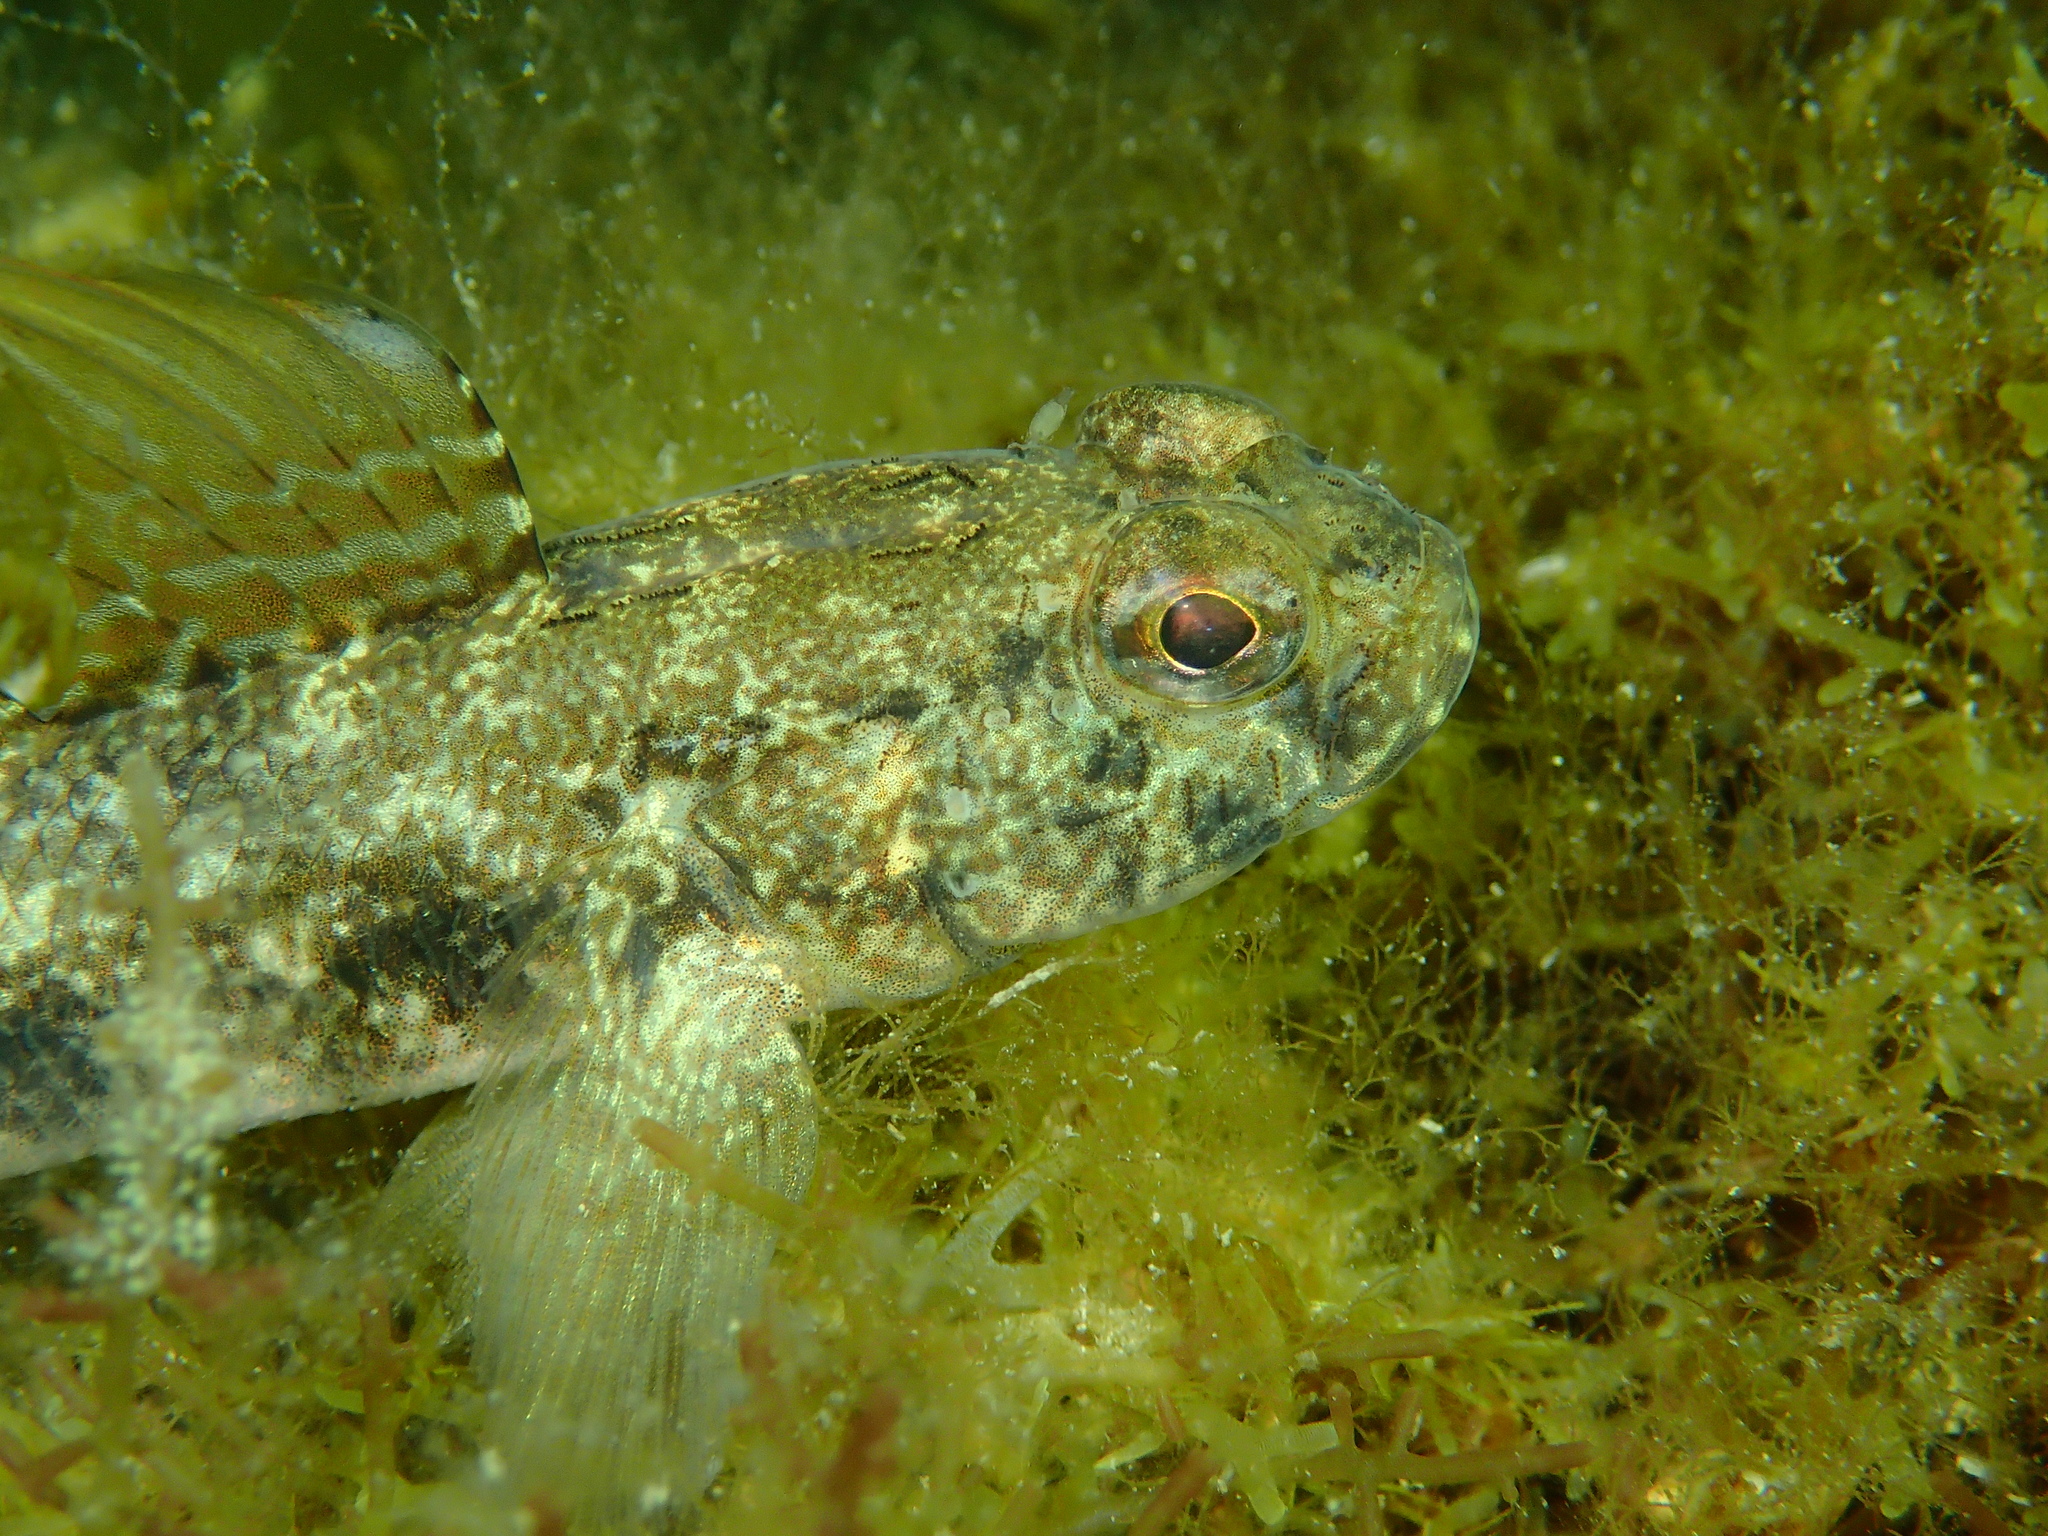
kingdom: Animalia
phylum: Chordata
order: Perciformes
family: Gobiidae
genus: Gobius
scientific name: Gobius niger
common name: Black goby
